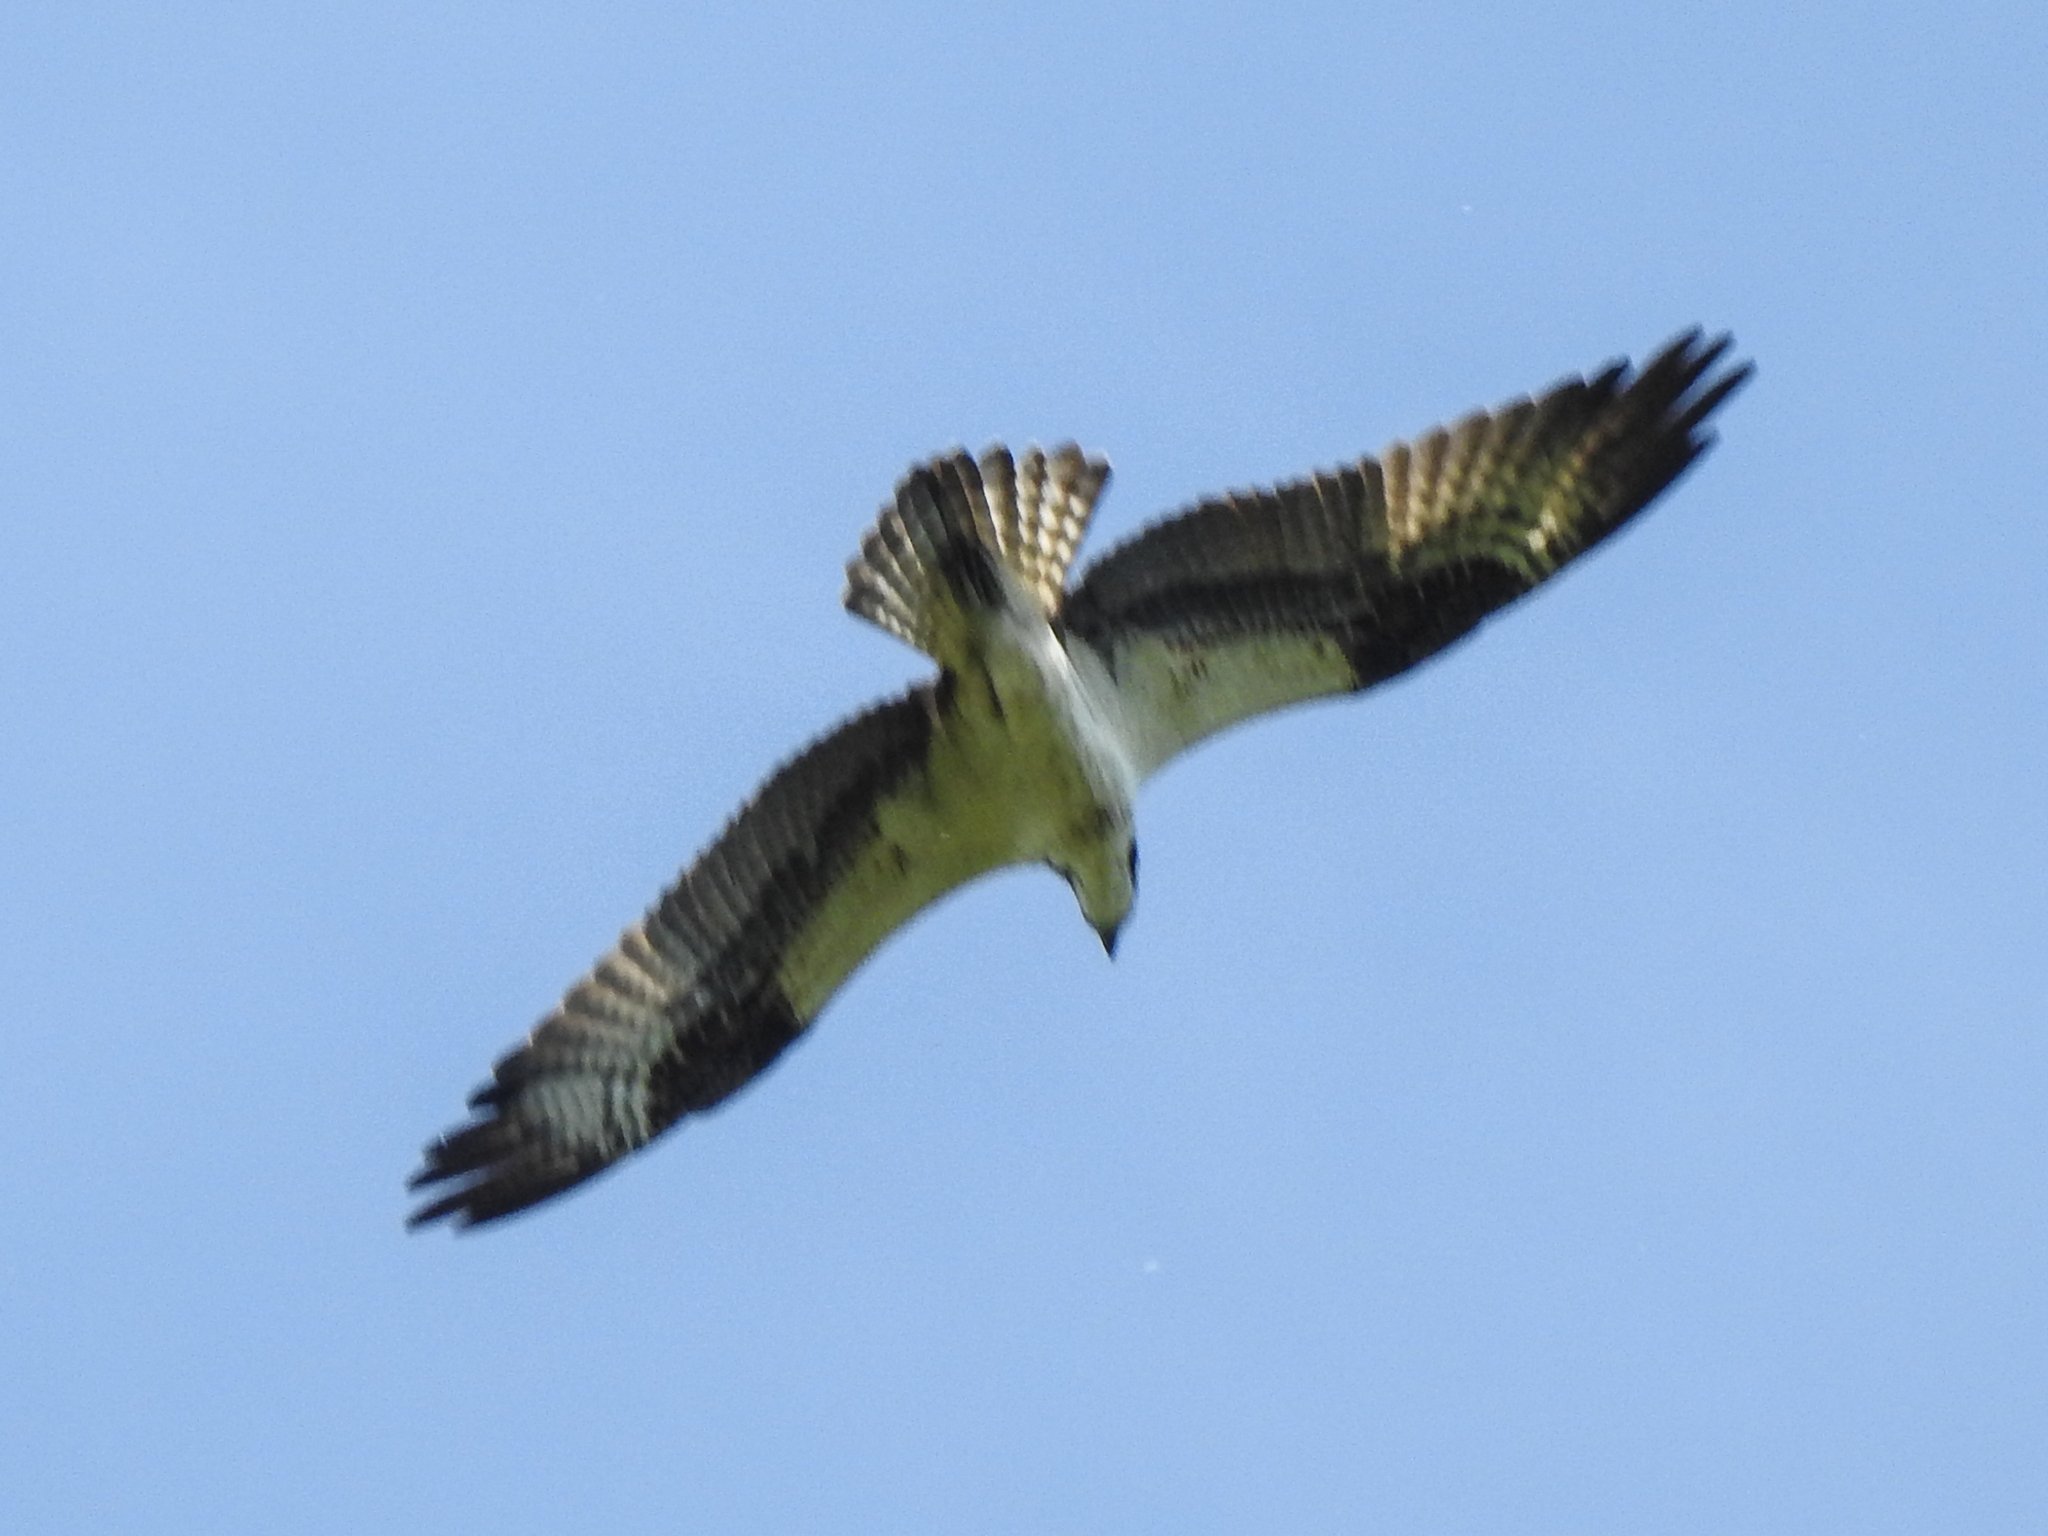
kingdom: Animalia
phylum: Chordata
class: Aves
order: Accipitriformes
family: Pandionidae
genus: Pandion
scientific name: Pandion haliaetus
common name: Osprey
